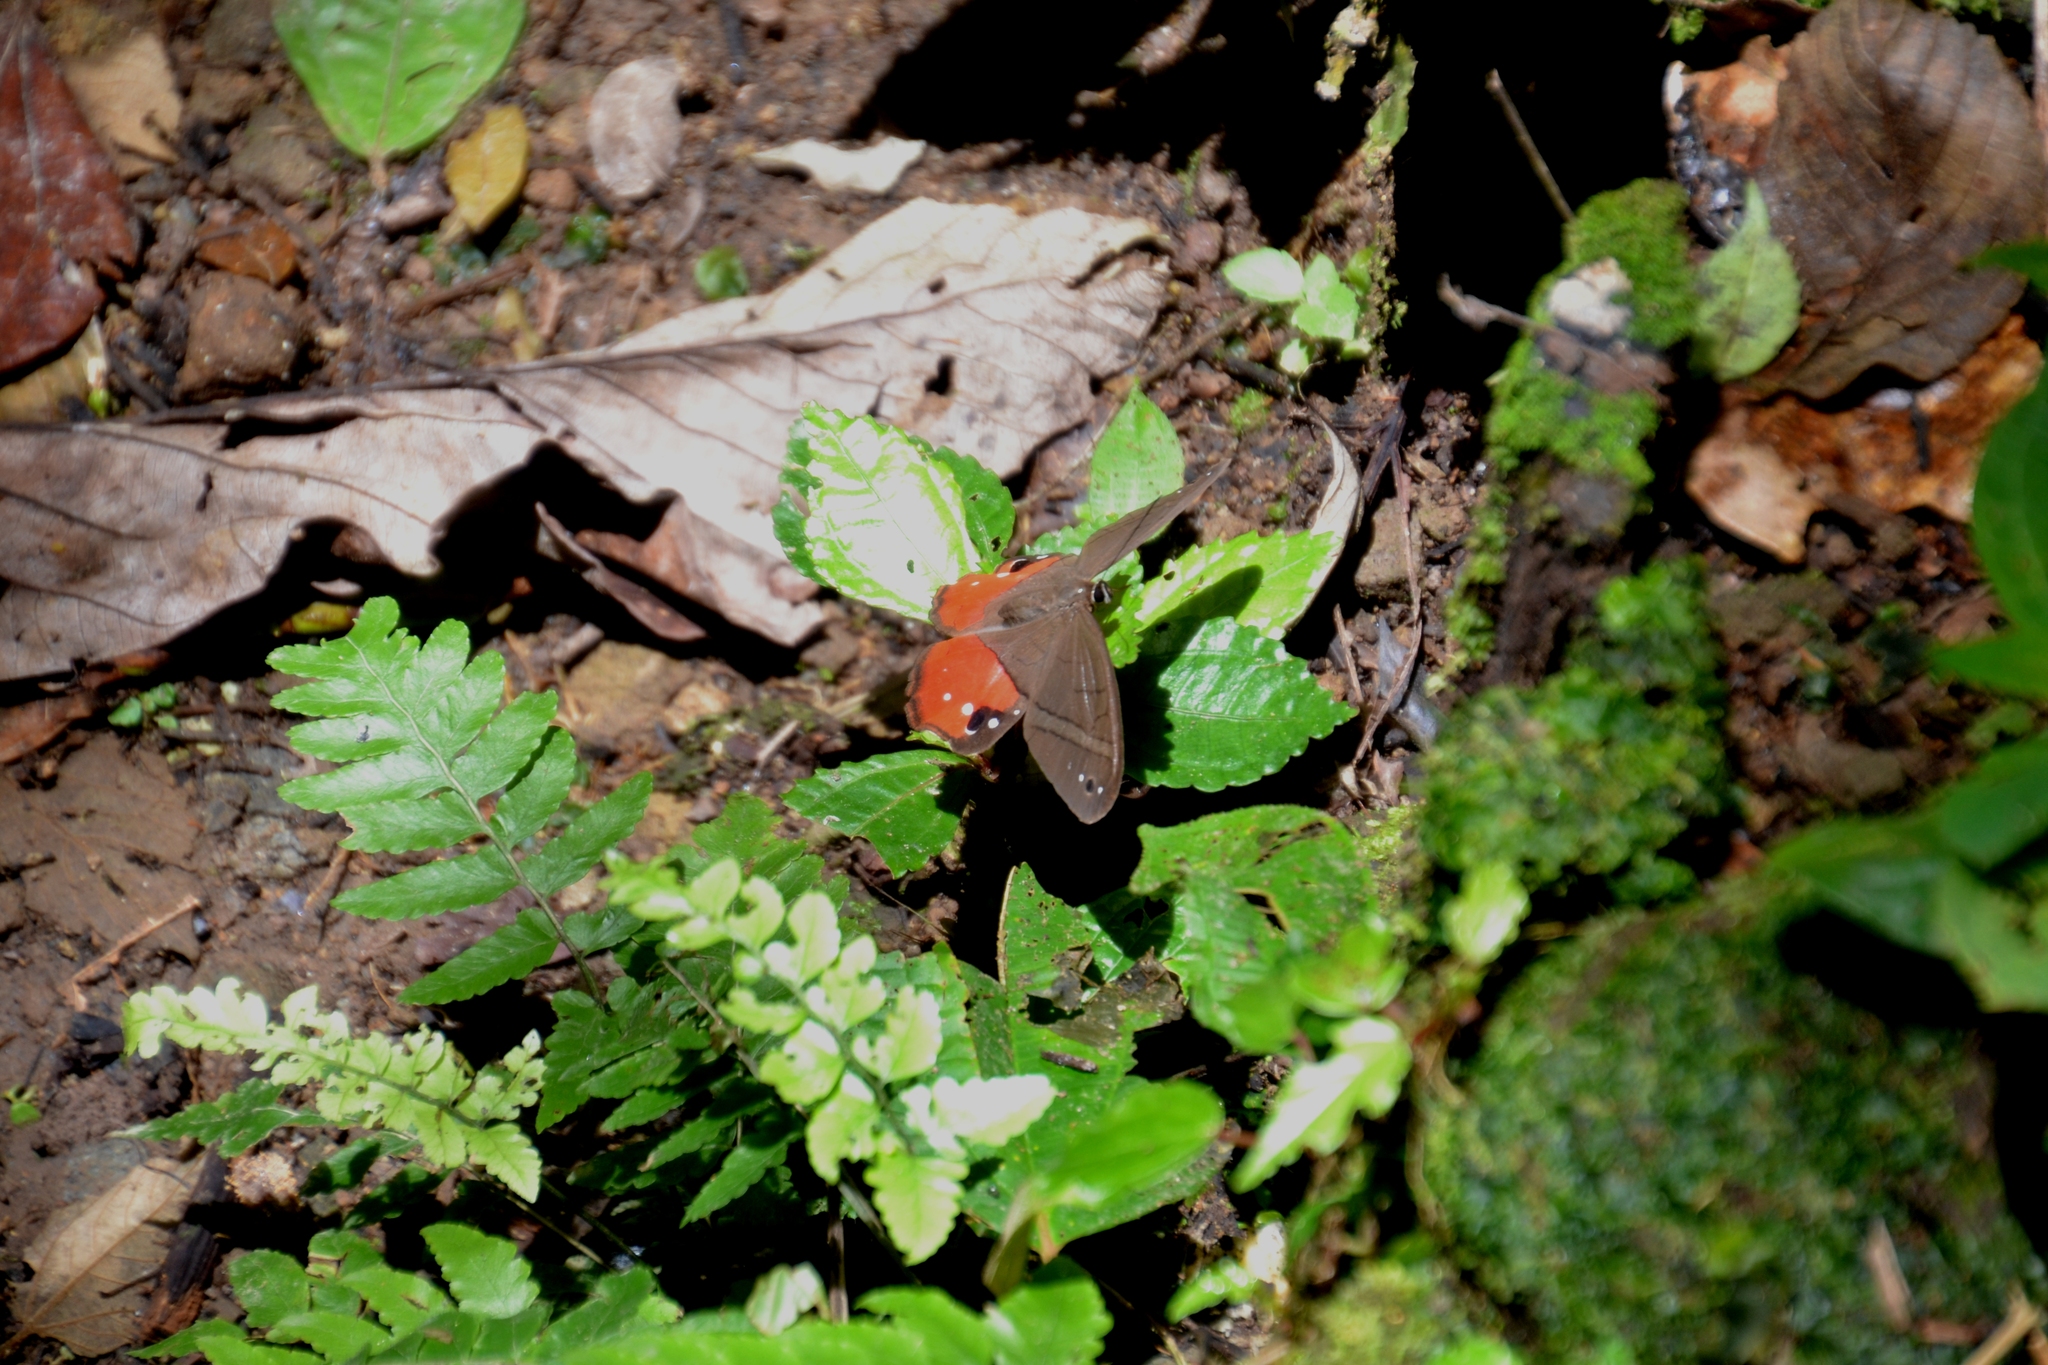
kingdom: Animalia
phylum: Arthropoda
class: Insecta
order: Lepidoptera
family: Nymphalidae
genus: Pierella
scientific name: Pierella helvina
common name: Red-washed satyr
